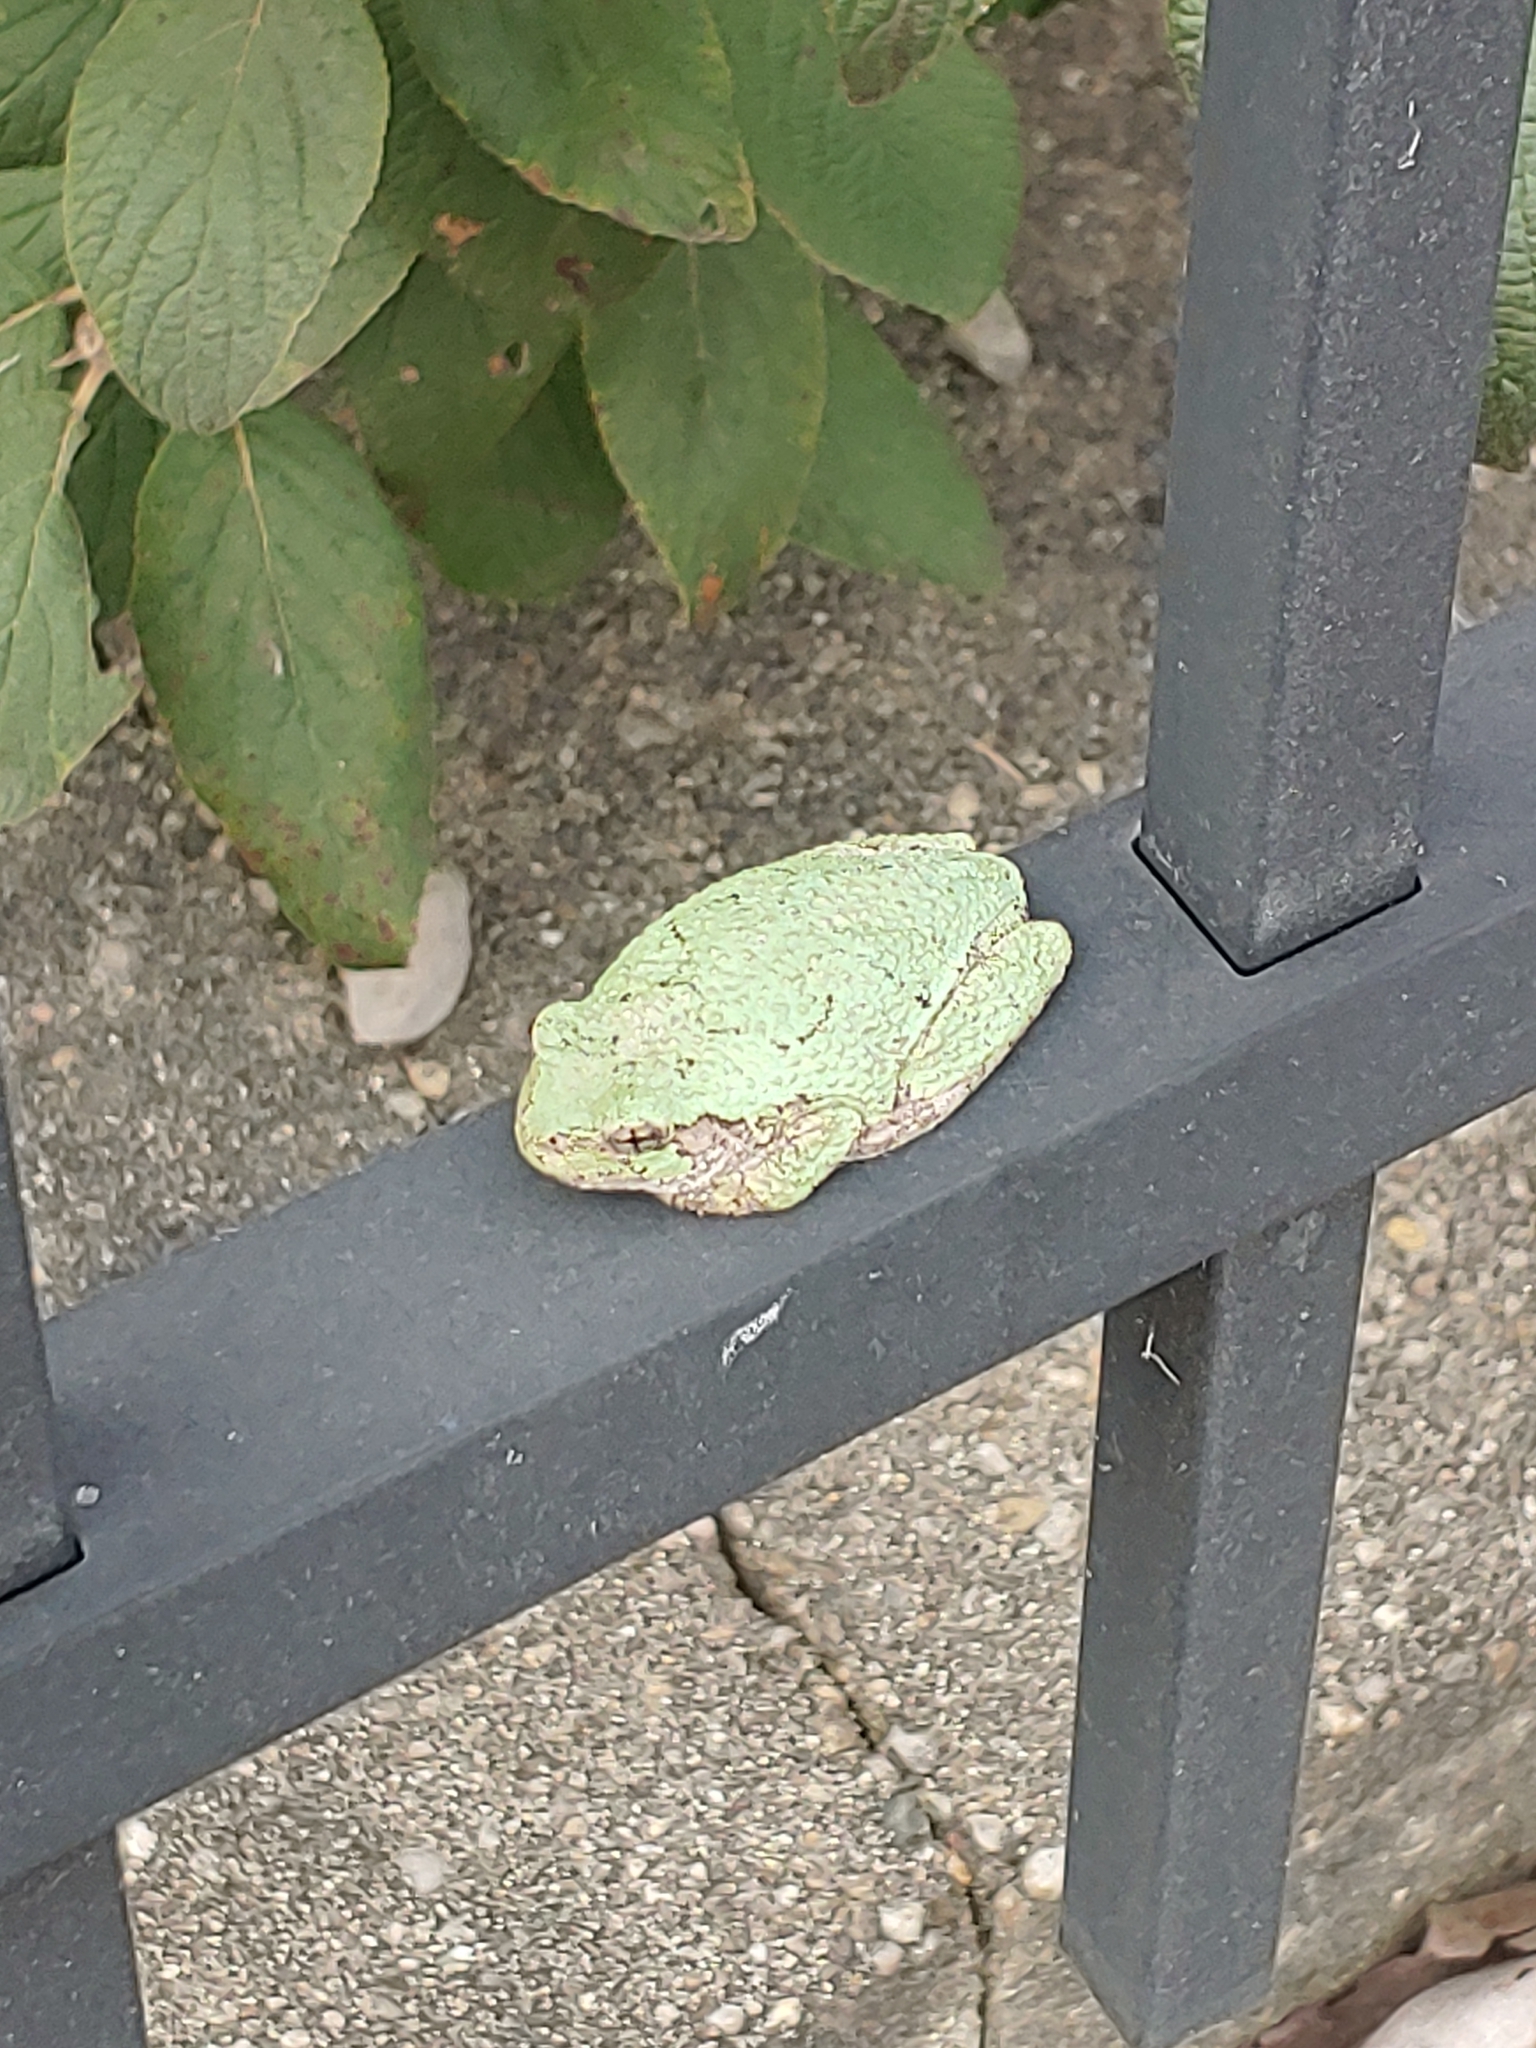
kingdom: Animalia
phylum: Chordata
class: Amphibia
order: Anura
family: Hylidae
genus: Hyla
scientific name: Hyla
